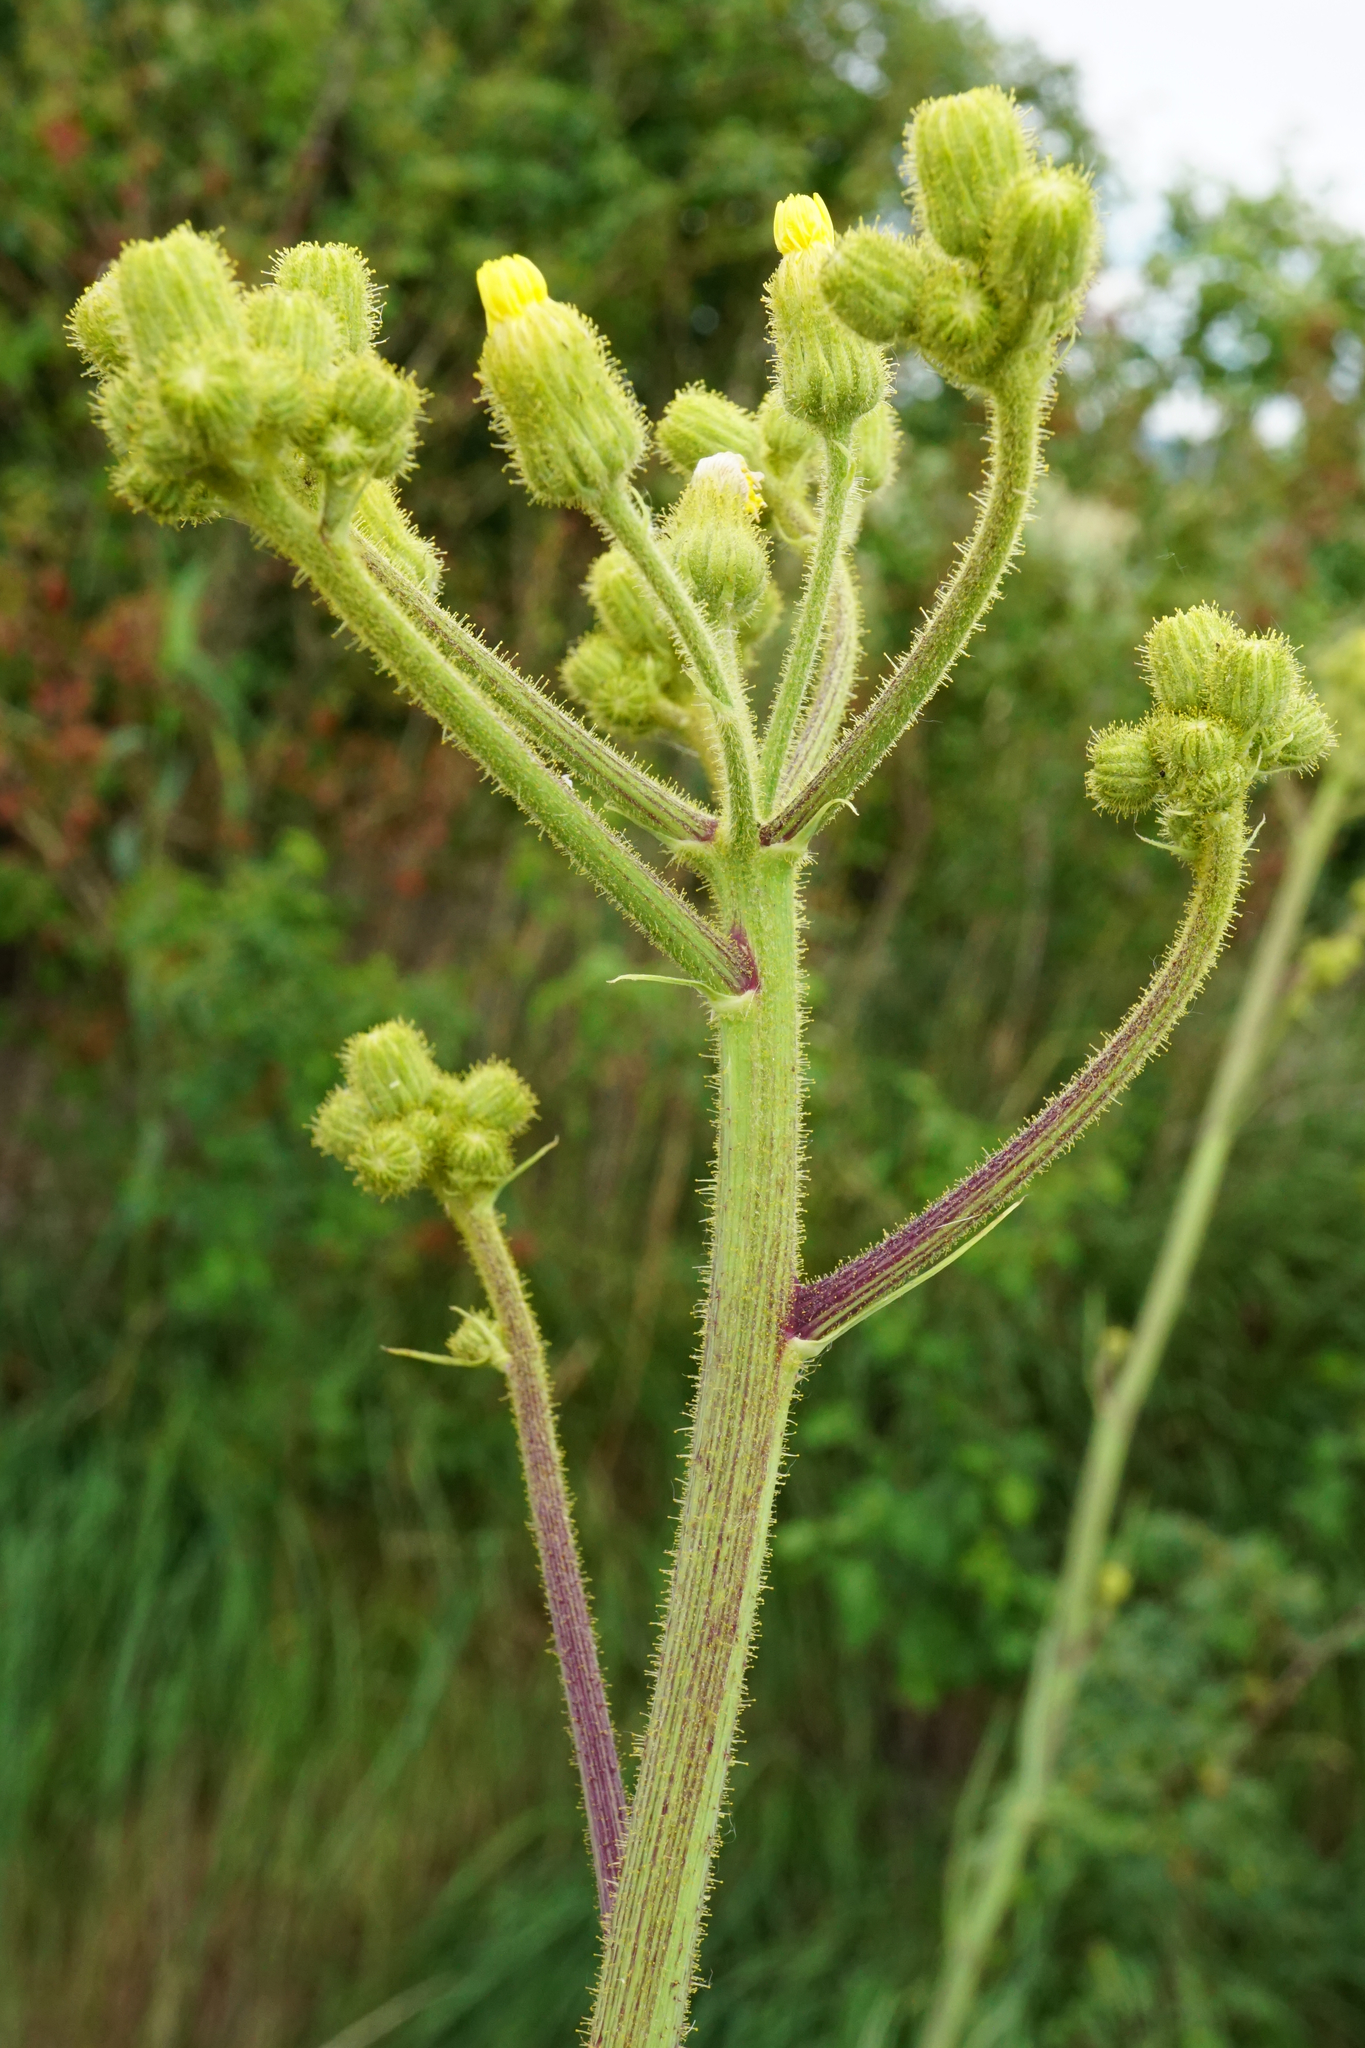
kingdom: Plantae
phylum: Tracheophyta
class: Magnoliopsida
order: Asterales
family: Asteraceae
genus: Sonchus
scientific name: Sonchus palustris
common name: Marsh sow-thistle
